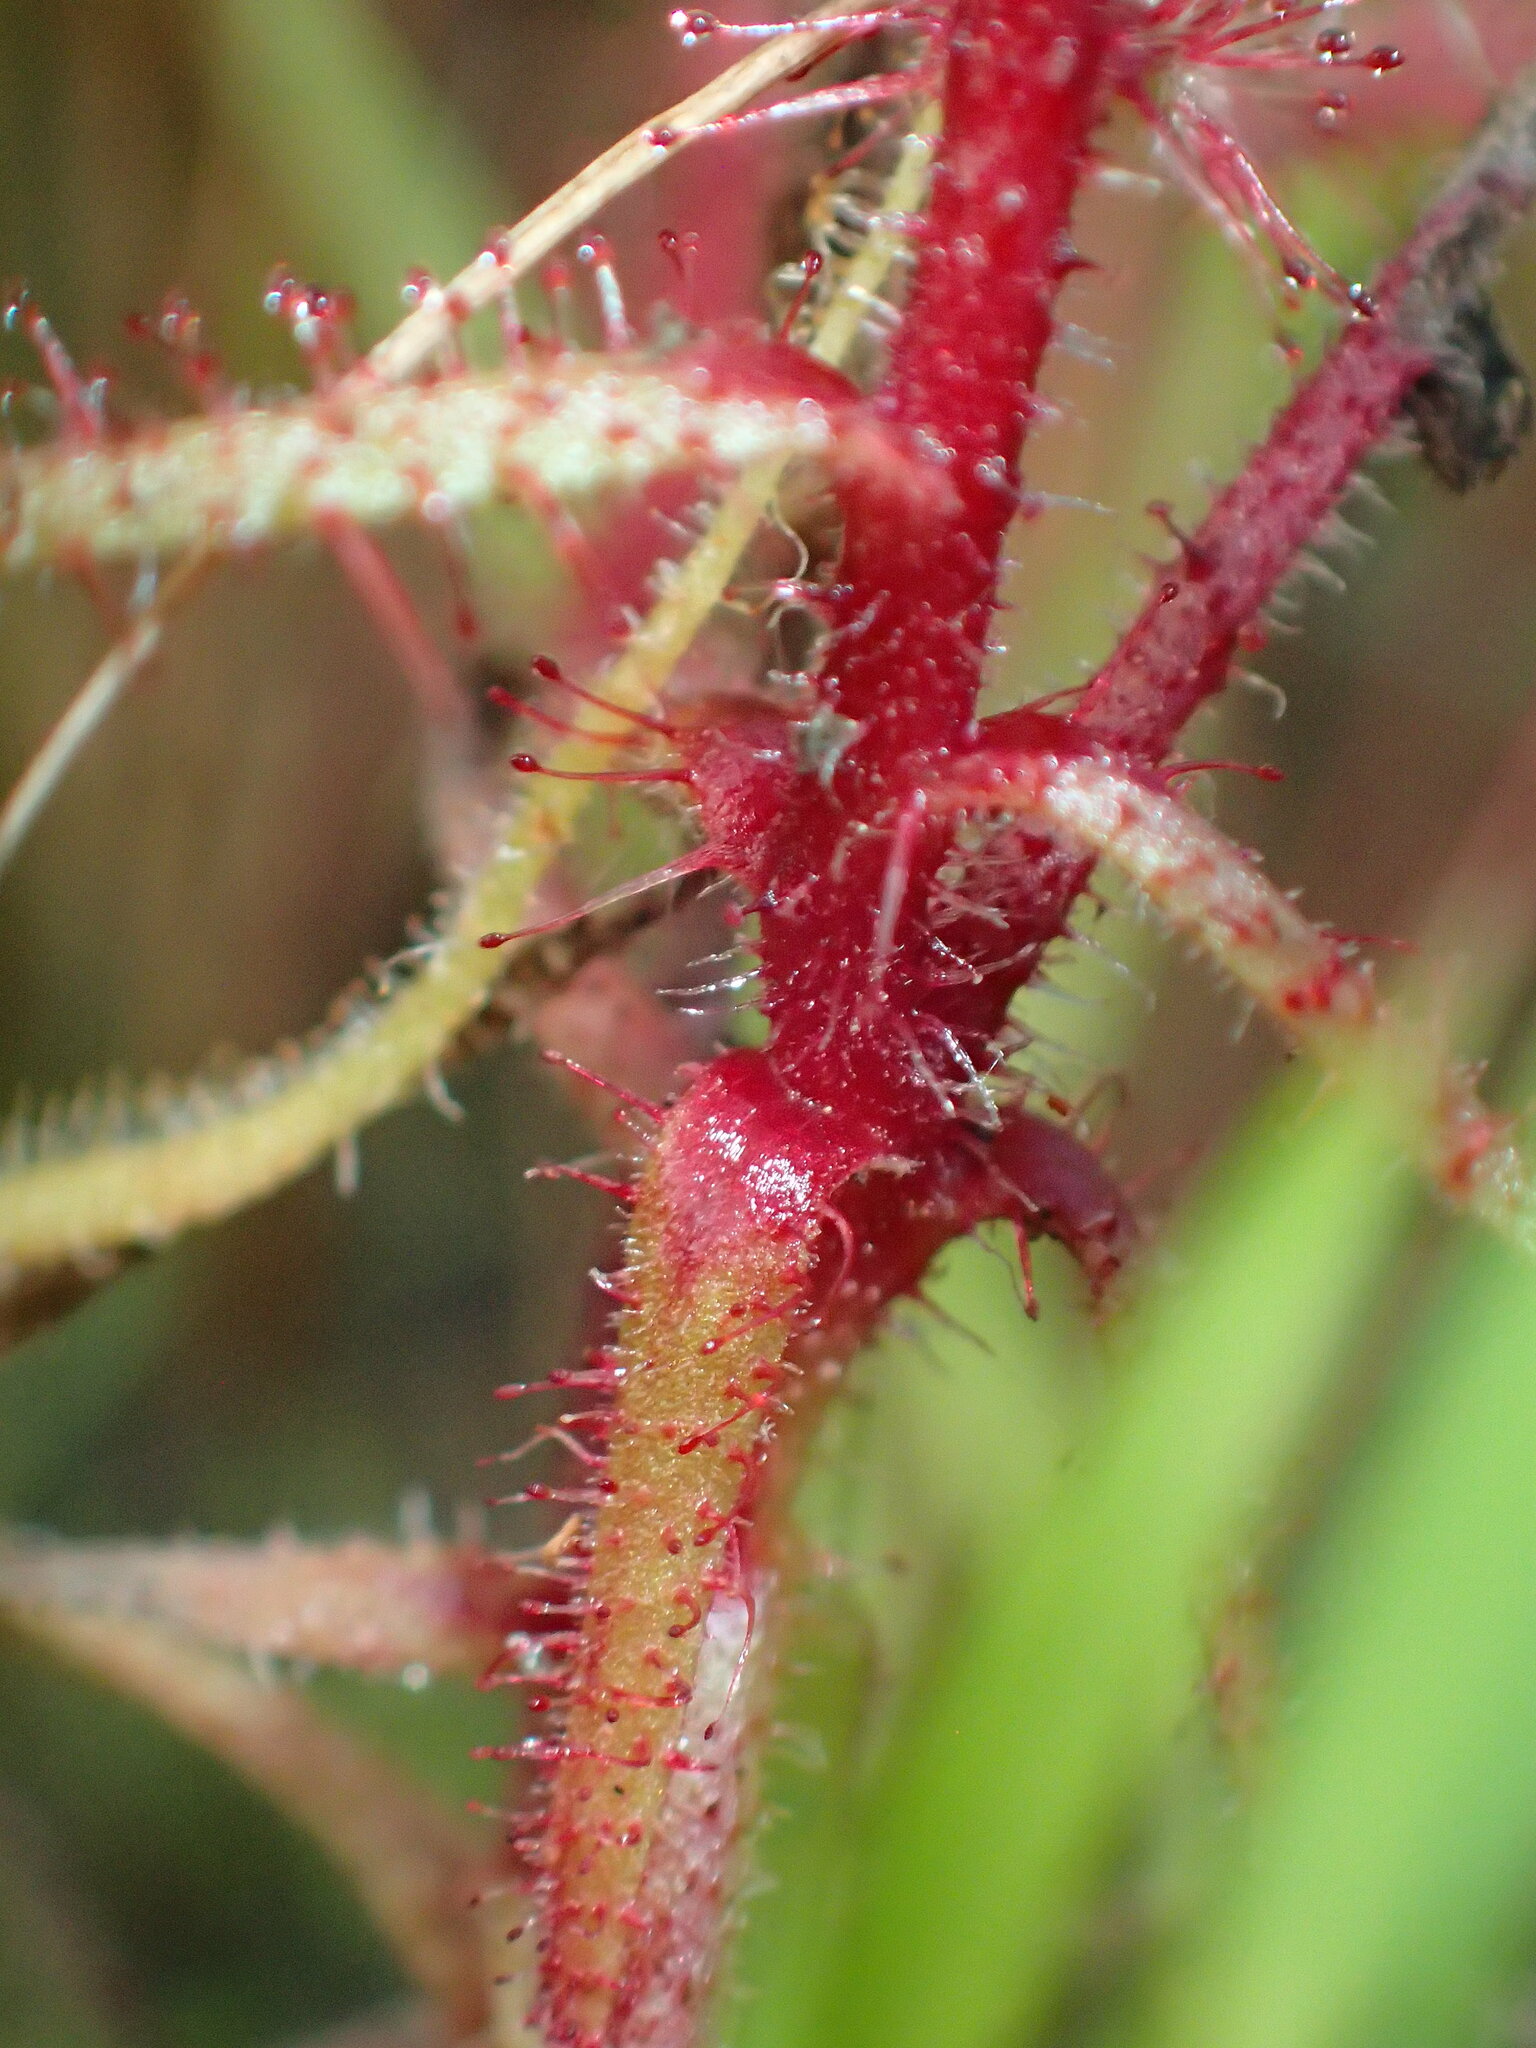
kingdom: Plantae
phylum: Tracheophyta
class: Magnoliopsida
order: Caryophyllales
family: Droseraceae
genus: Drosera
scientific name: Drosera aquatica
